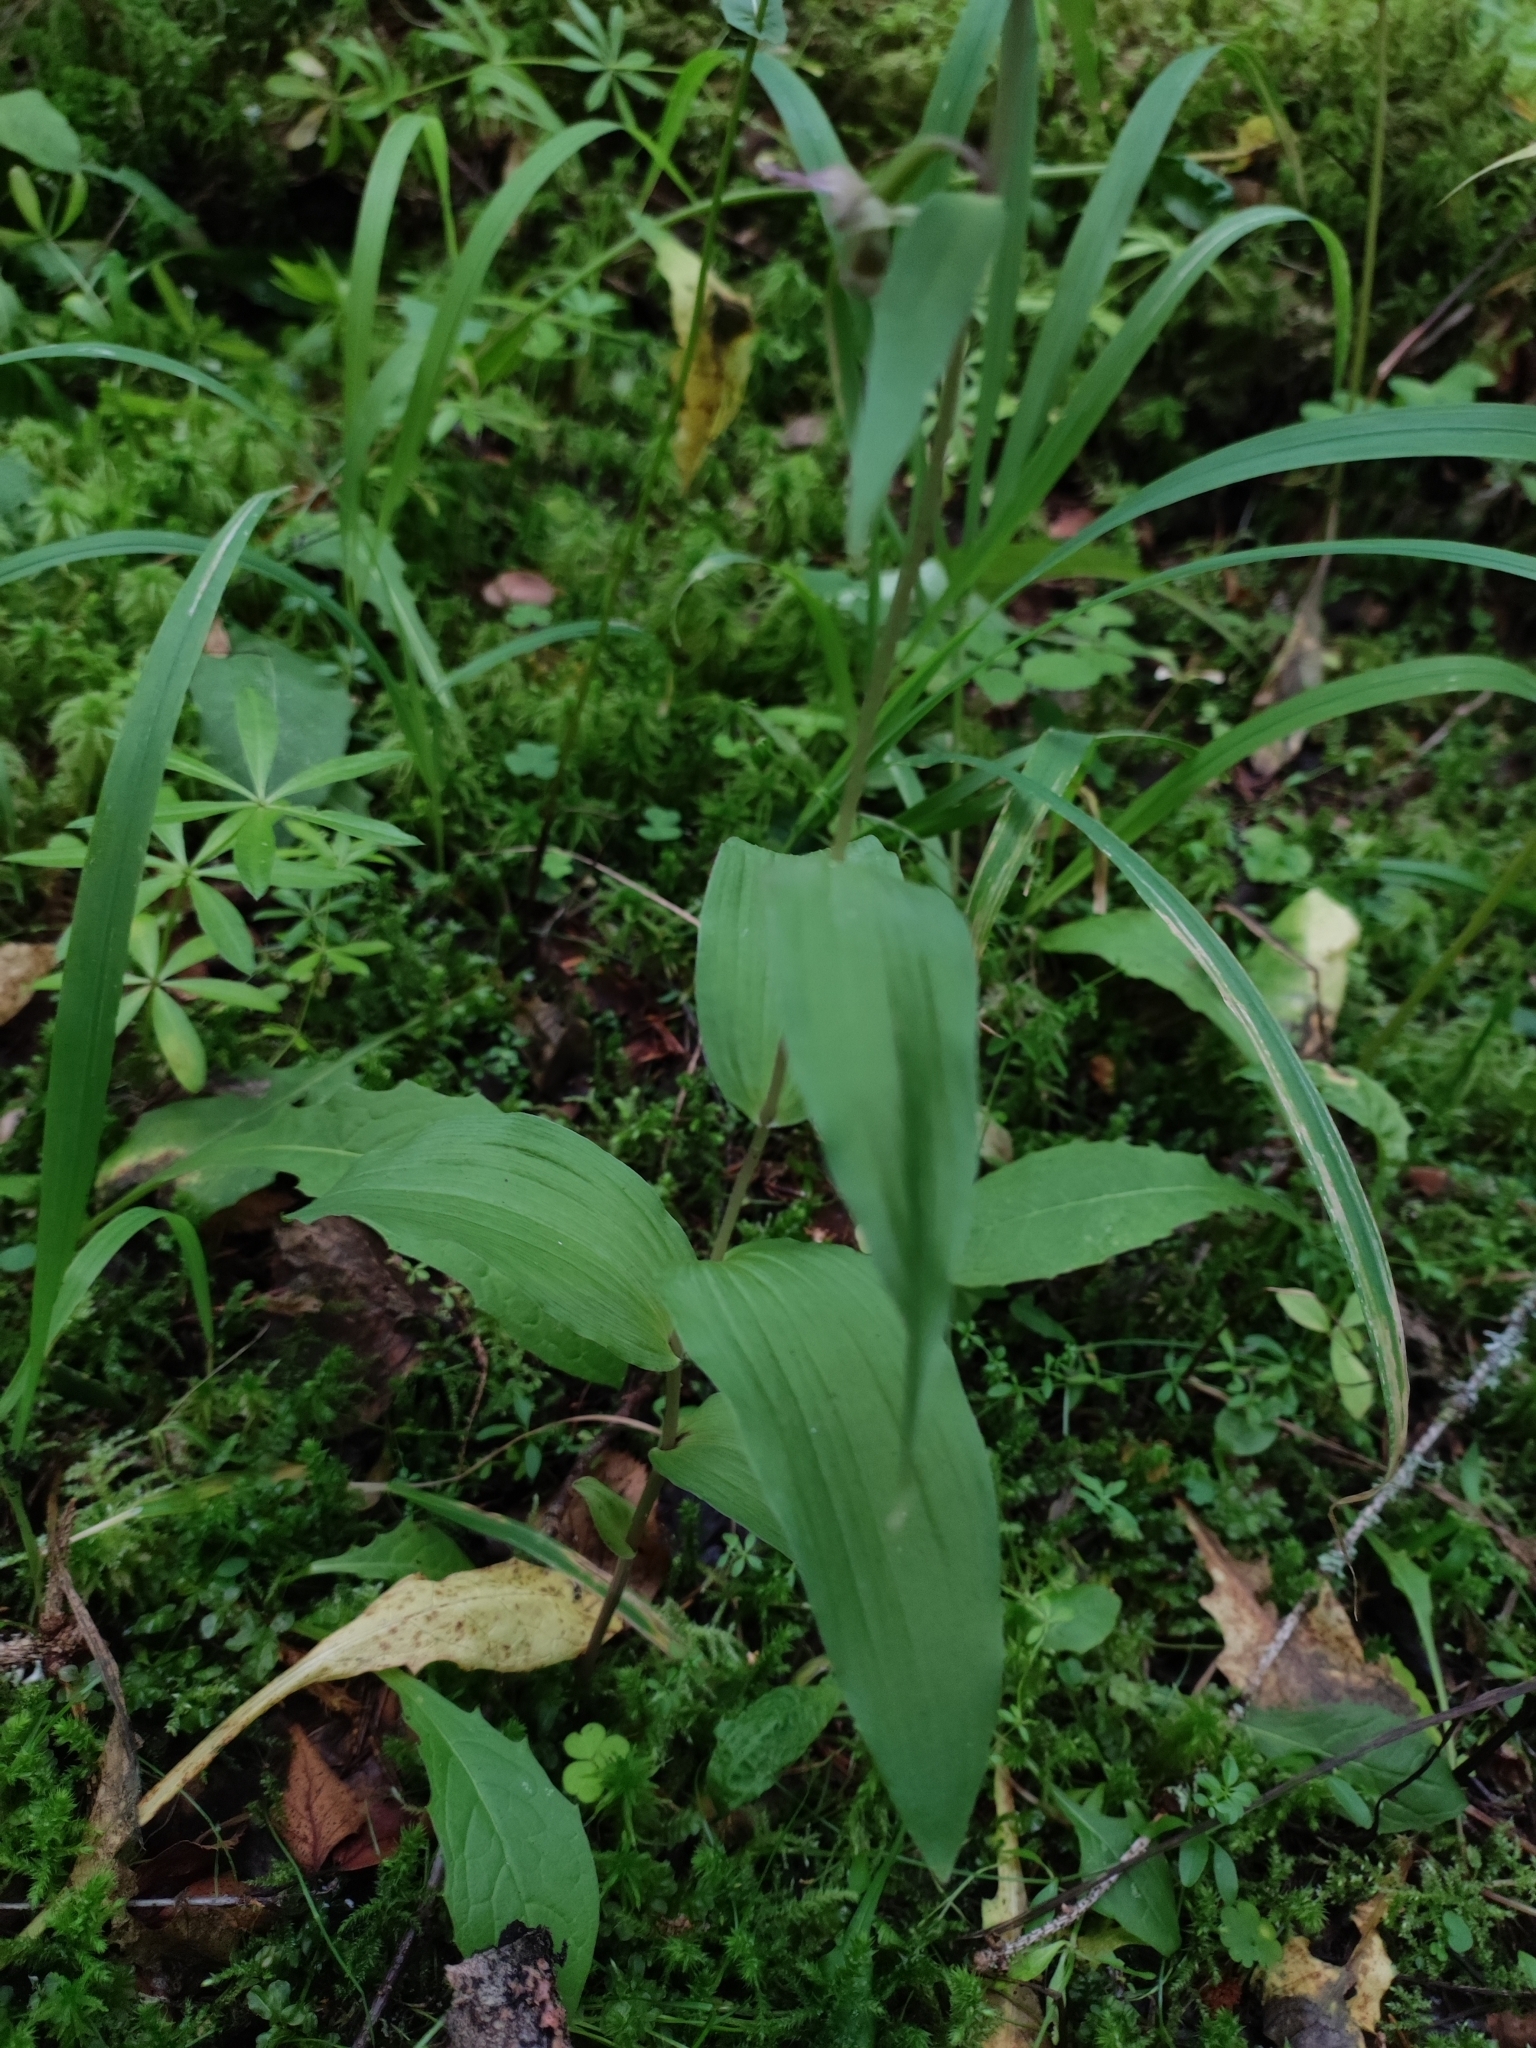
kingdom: Plantae
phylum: Tracheophyta
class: Liliopsida
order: Asparagales
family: Orchidaceae
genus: Epipactis
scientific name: Epipactis helleborine
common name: Broad-leaved helleborine
